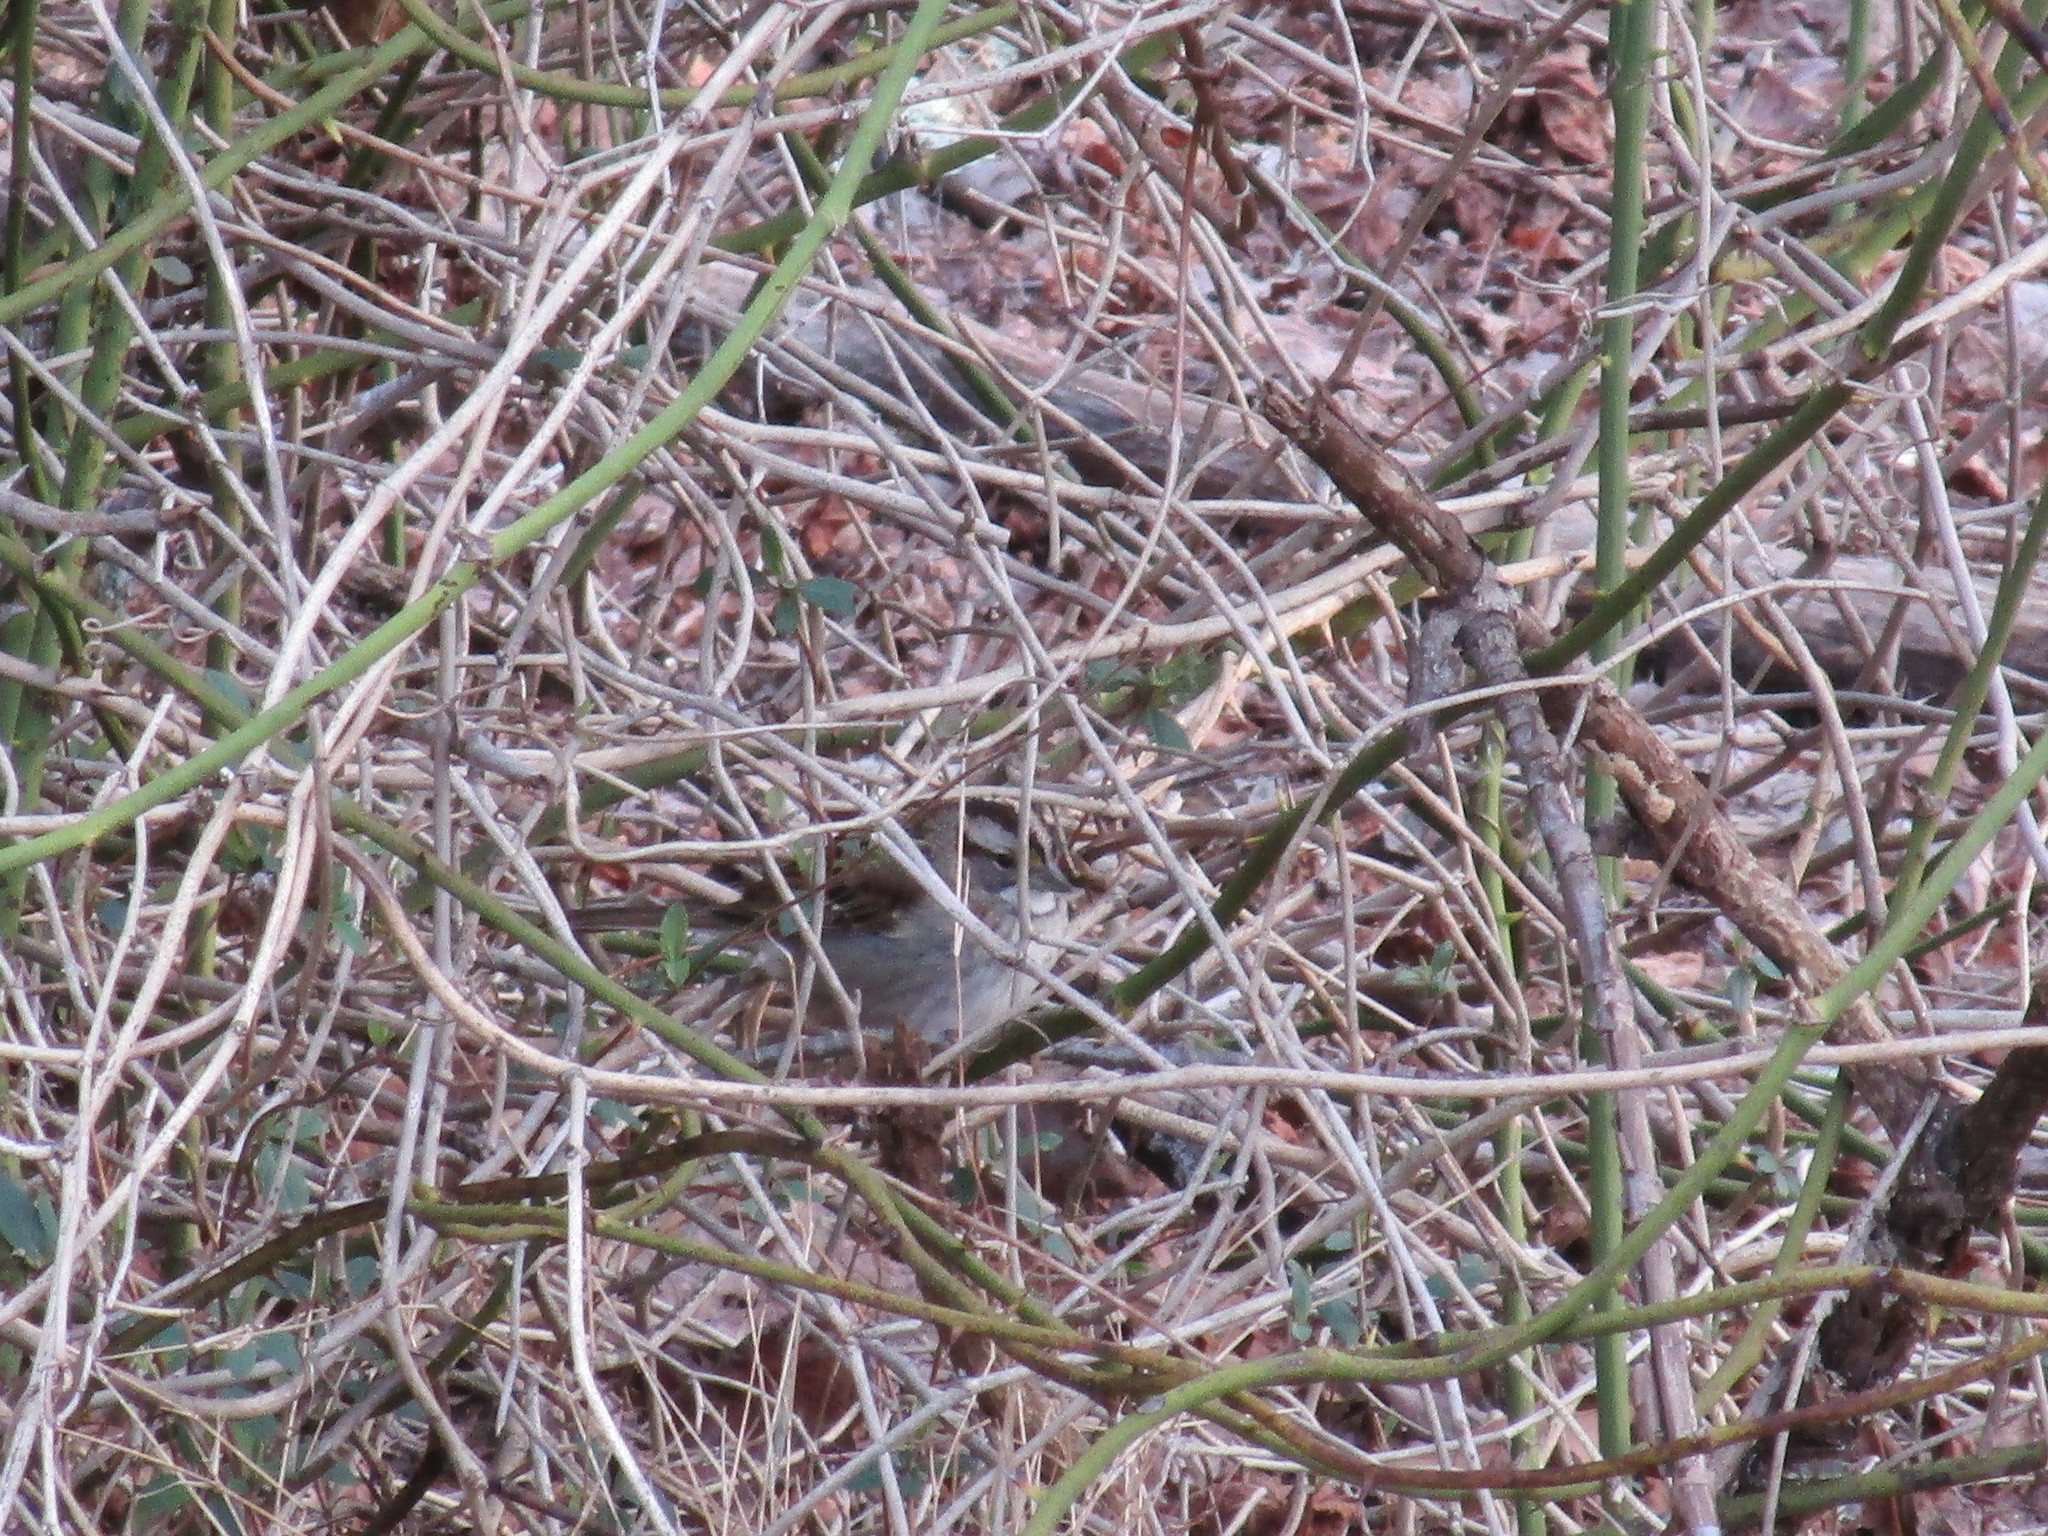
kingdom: Animalia
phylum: Chordata
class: Aves
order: Passeriformes
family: Passerellidae
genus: Zonotrichia
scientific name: Zonotrichia albicollis
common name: White-throated sparrow
